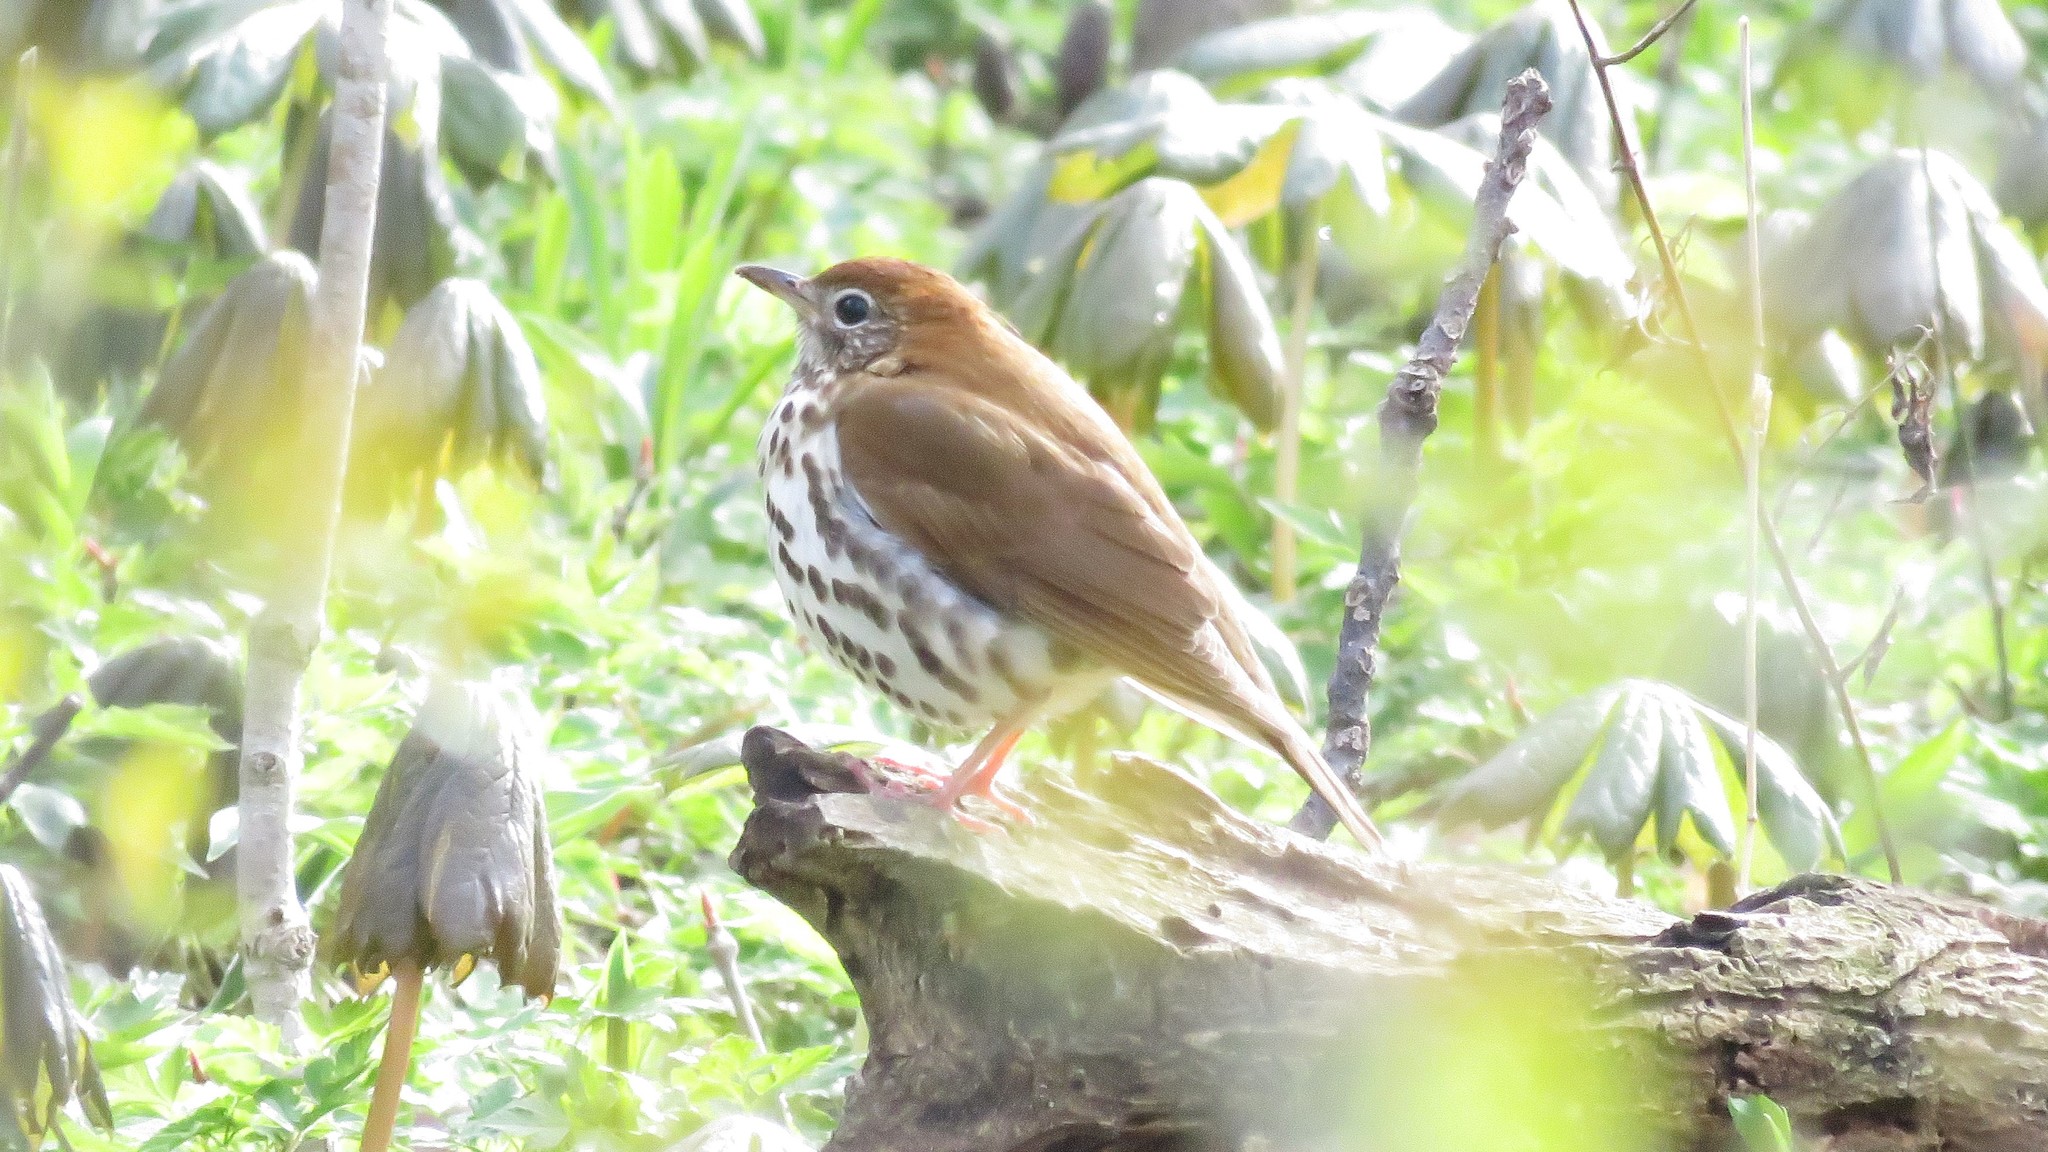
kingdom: Animalia
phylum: Chordata
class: Aves
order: Passeriformes
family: Turdidae
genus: Hylocichla
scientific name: Hylocichla mustelina
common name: Wood thrush
